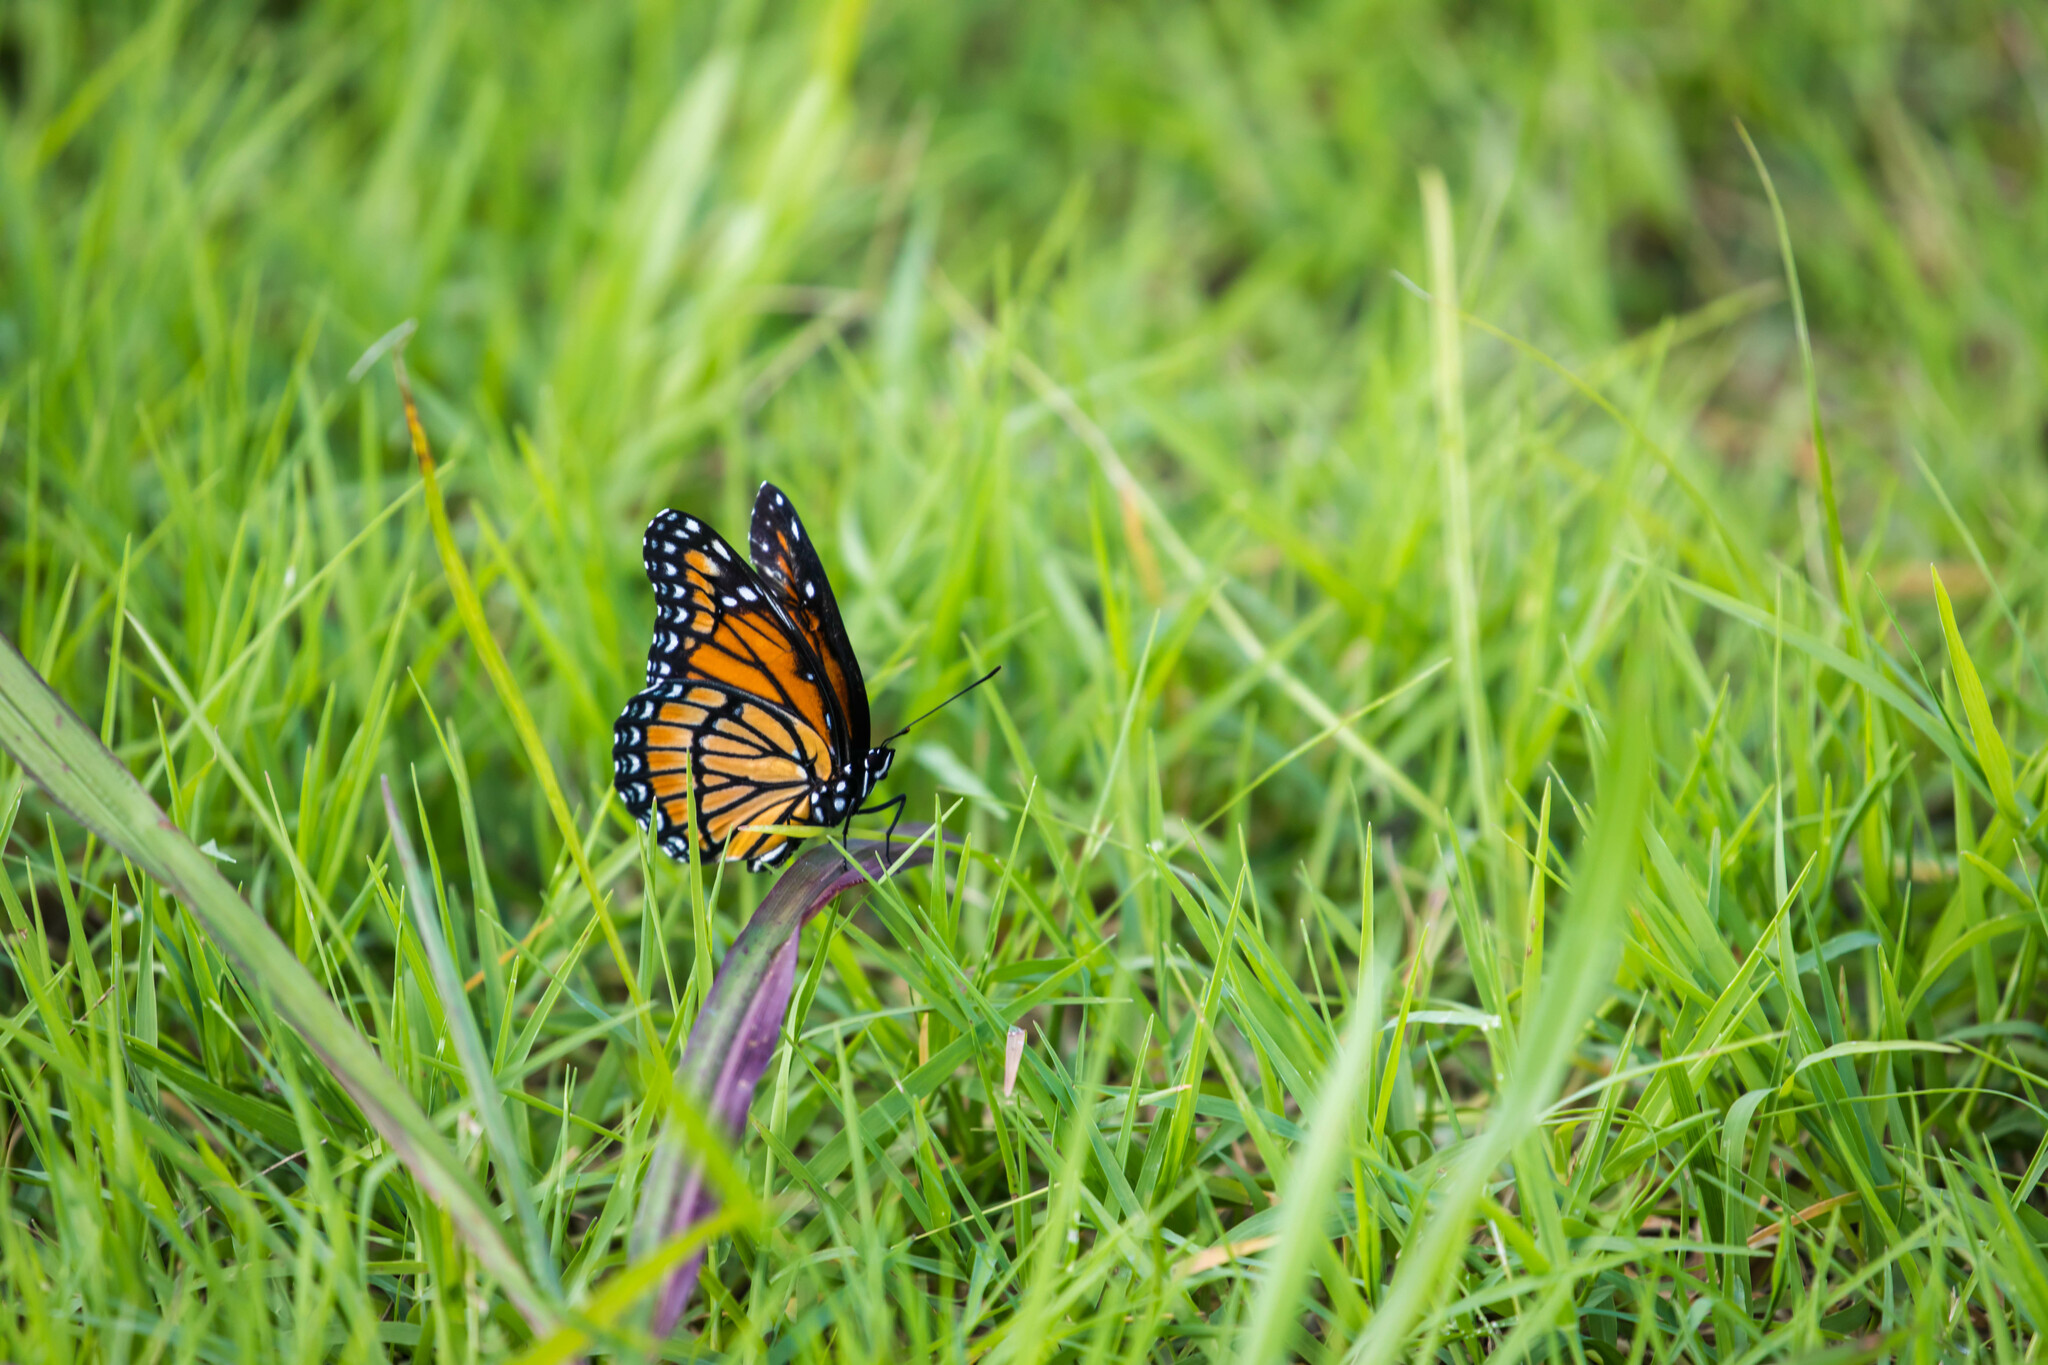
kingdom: Animalia
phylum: Arthropoda
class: Insecta
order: Lepidoptera
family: Nymphalidae
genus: Limenitis
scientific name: Limenitis archippus
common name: Viceroy
